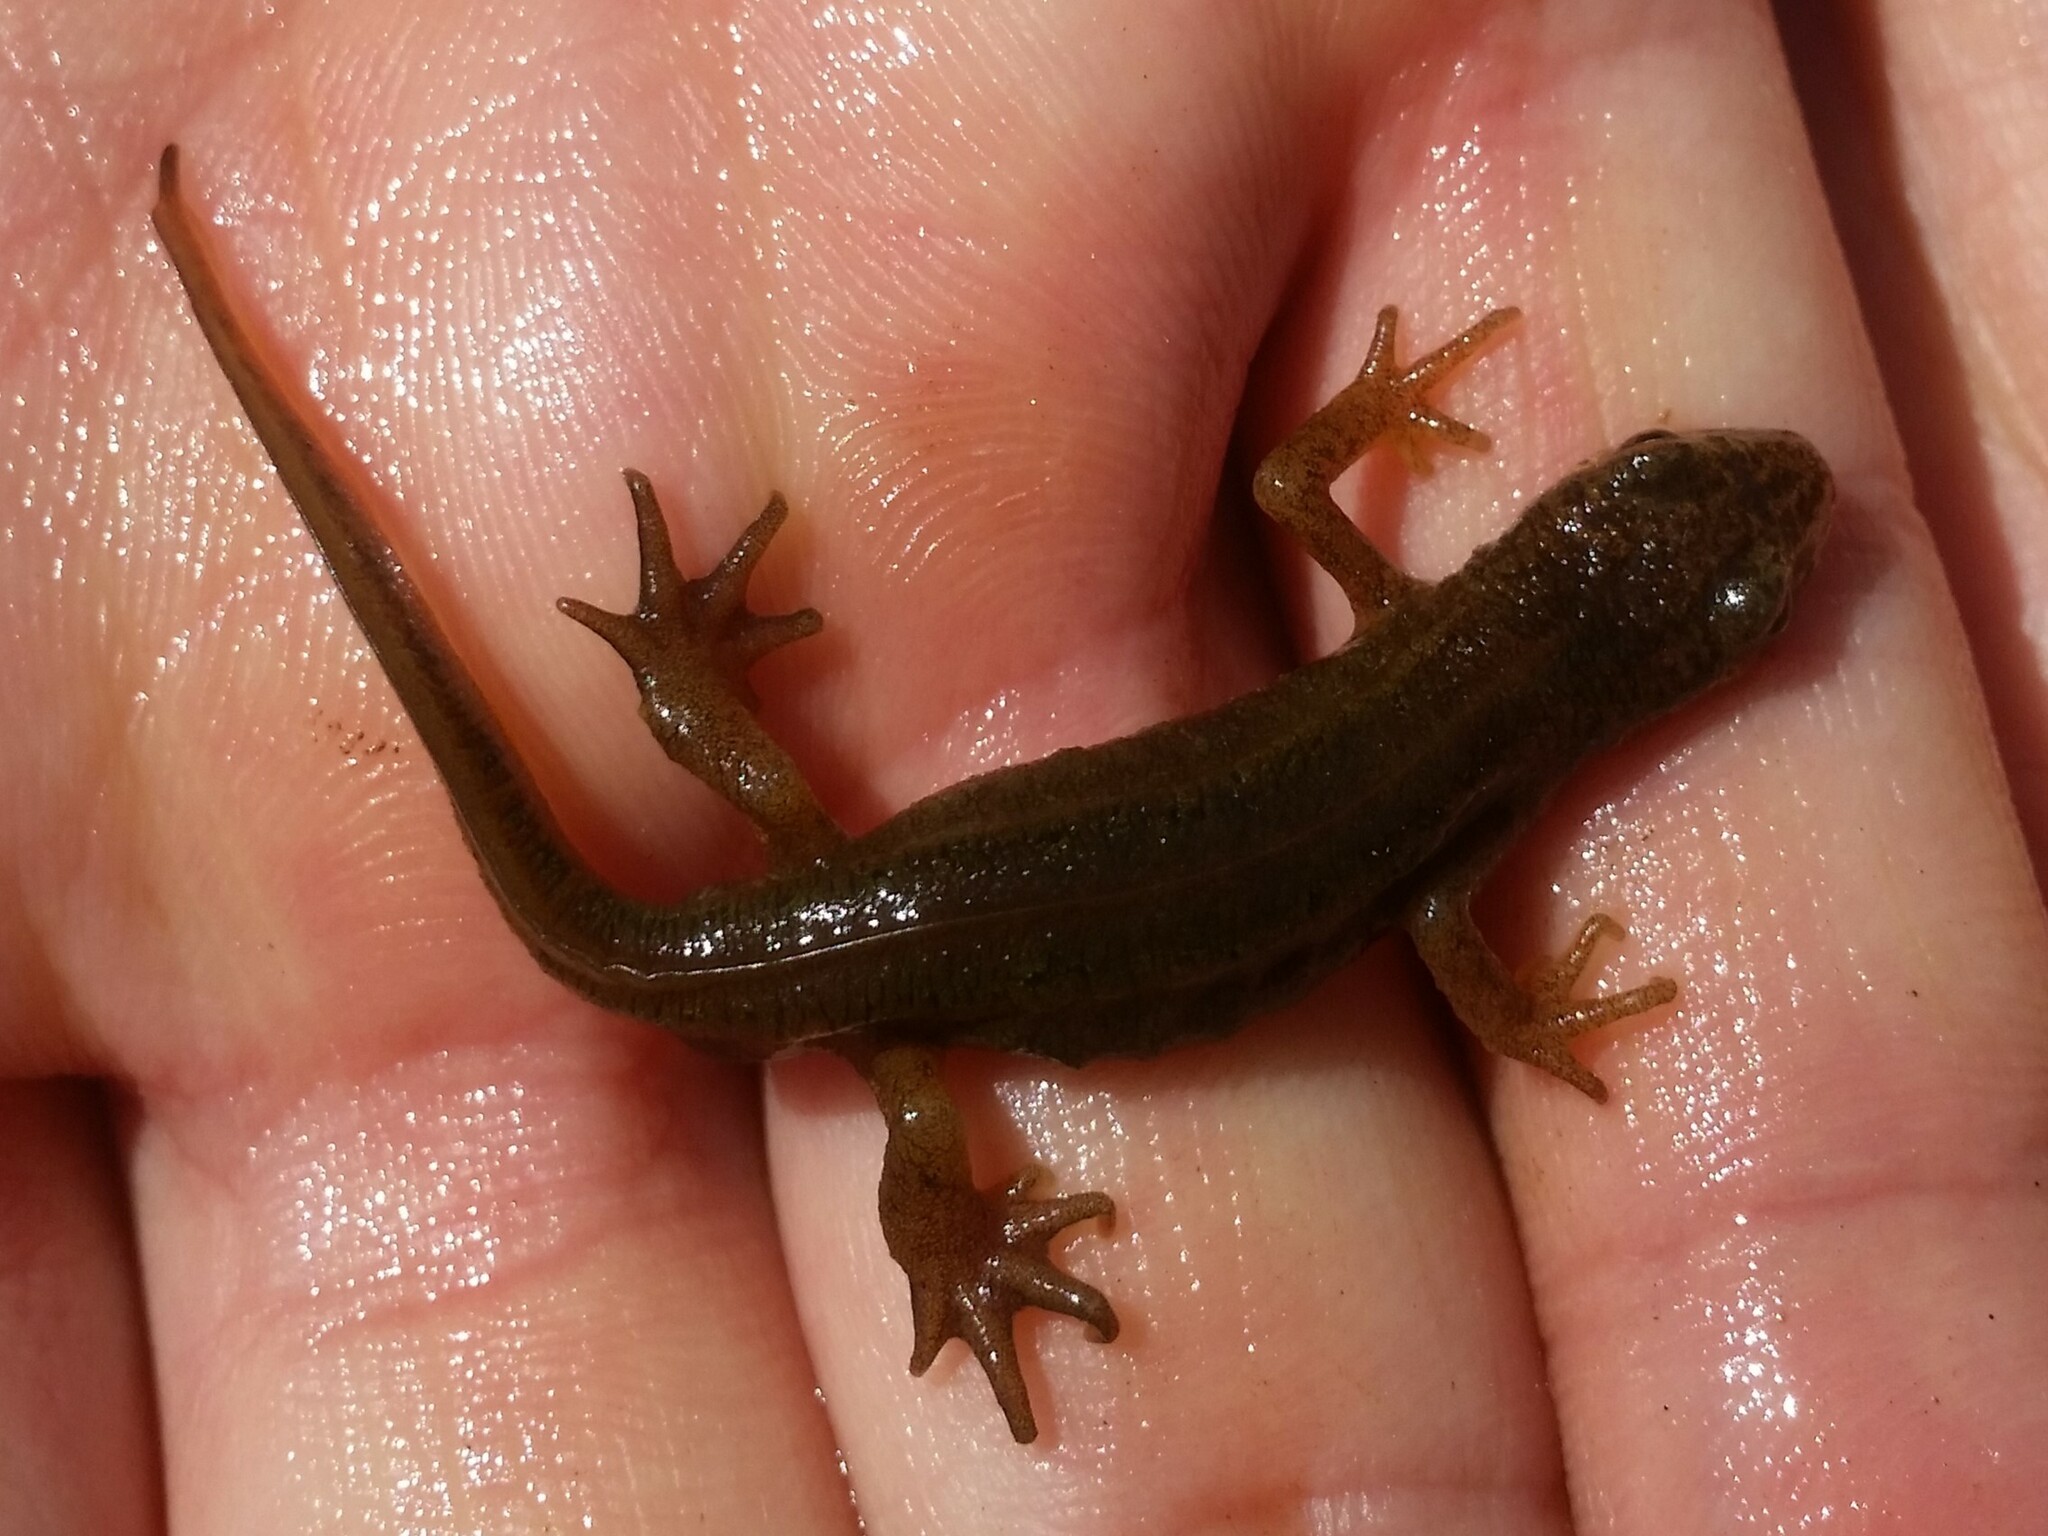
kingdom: Animalia
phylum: Chordata
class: Amphibia
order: Caudata
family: Salamandridae
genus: Lissotriton
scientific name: Lissotriton helveticus
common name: Palmate newt
